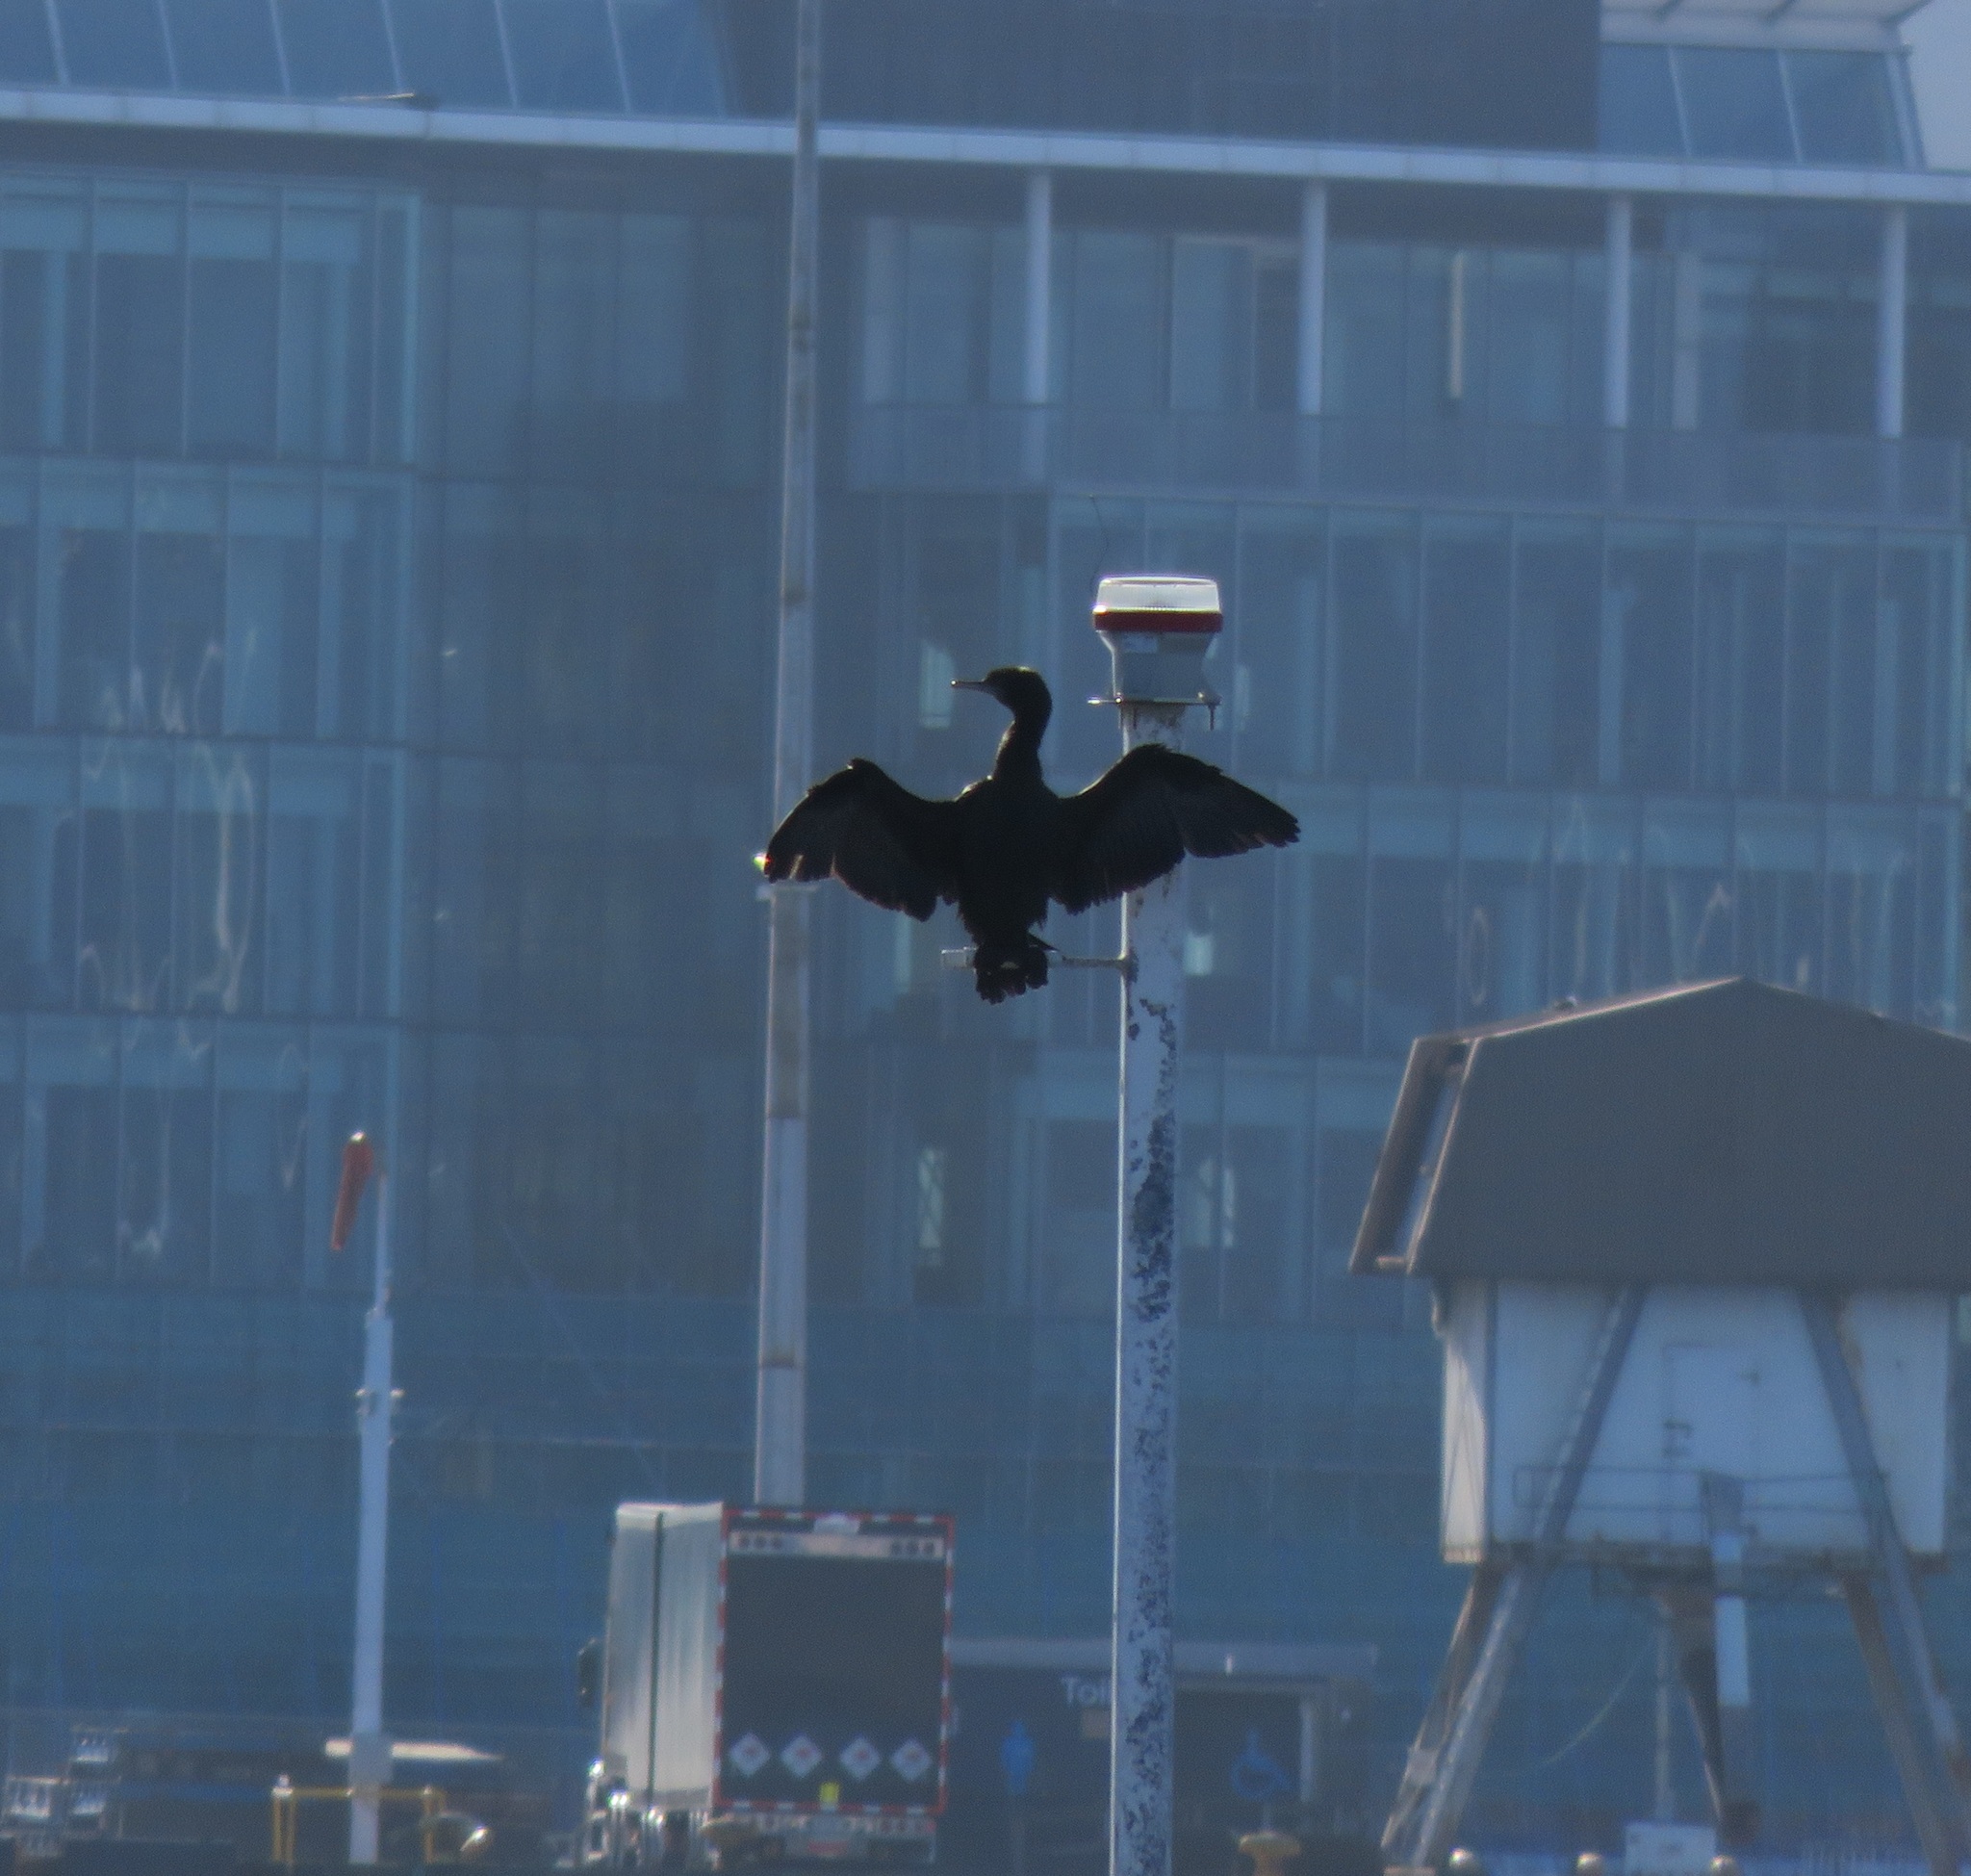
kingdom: Animalia
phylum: Chordata
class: Aves
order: Suliformes
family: Phalacrocoracidae
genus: Phalacrocorax
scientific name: Phalacrocorax sulcirostris
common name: Little black cormorant
